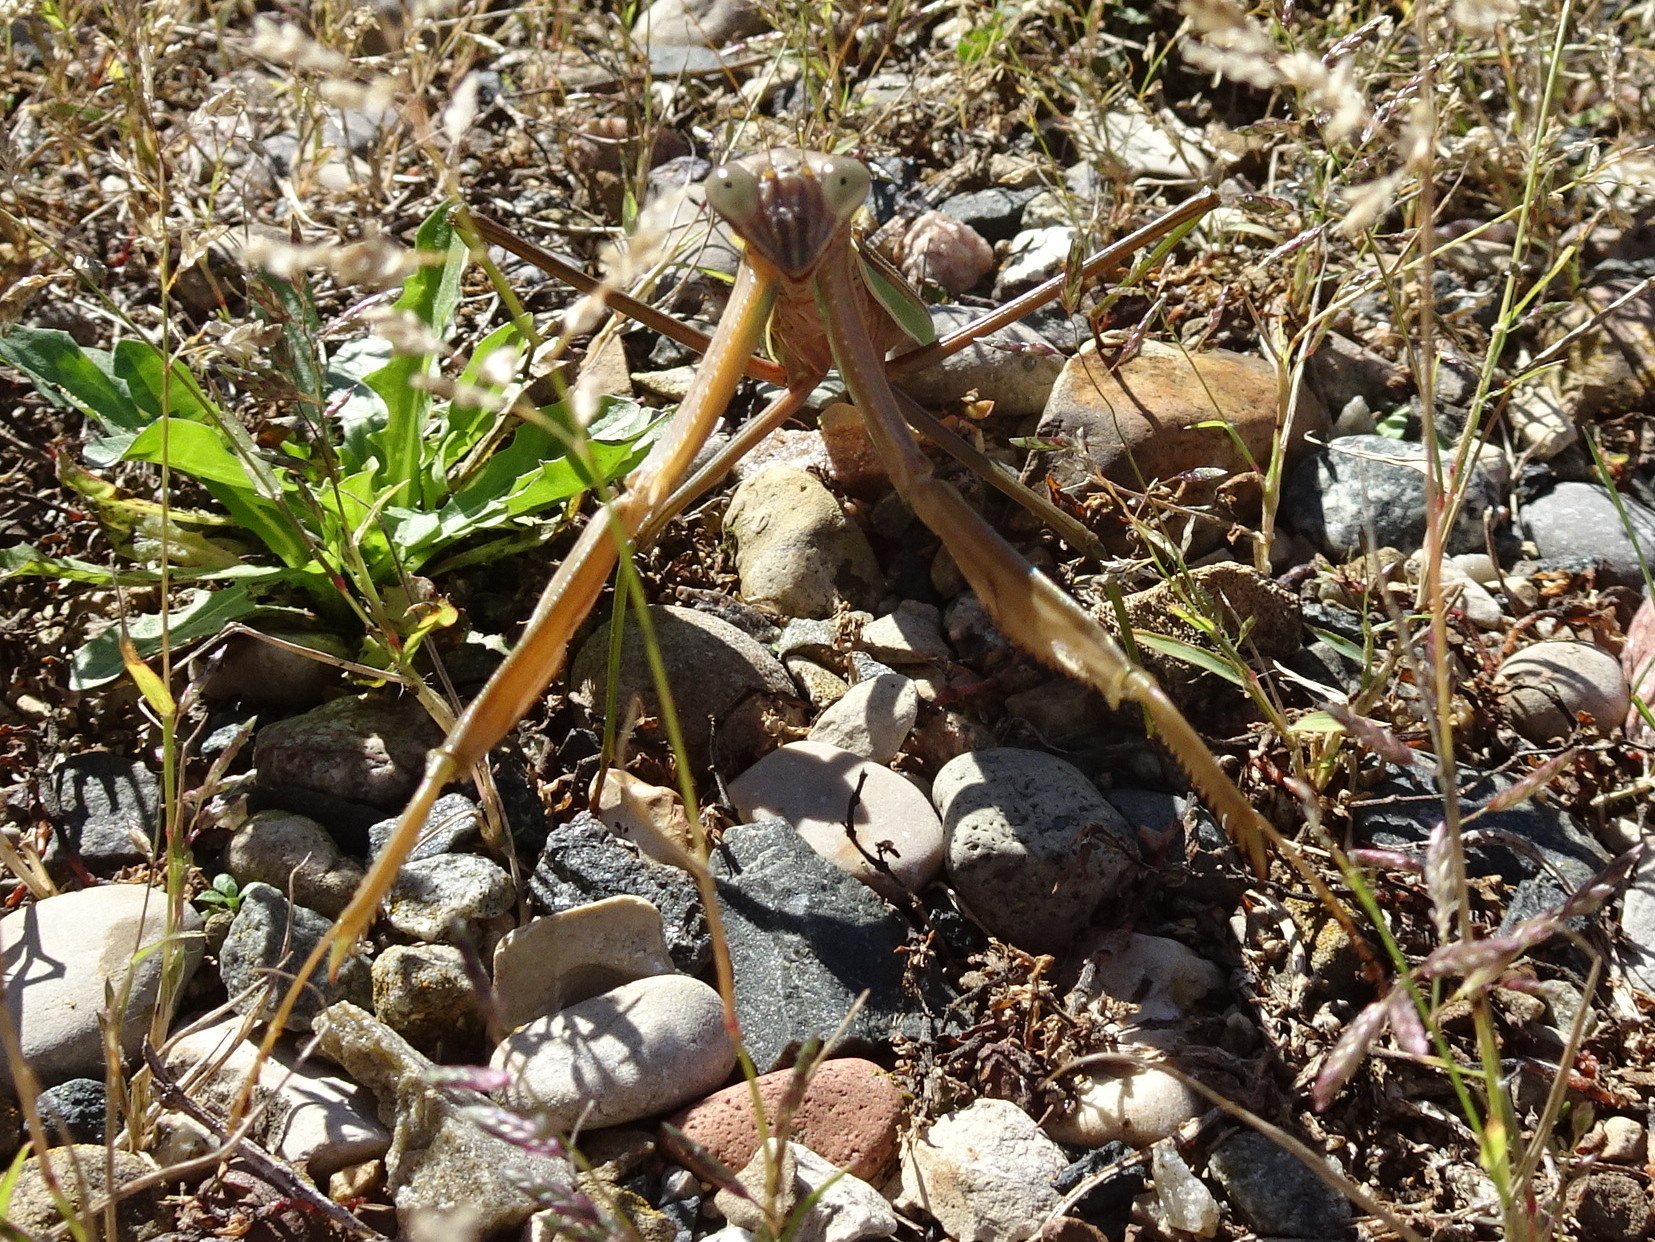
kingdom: Animalia
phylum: Arthropoda
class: Insecta
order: Mantodea
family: Mantidae
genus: Tenodera
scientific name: Tenodera sinensis
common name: Chinese mantis
